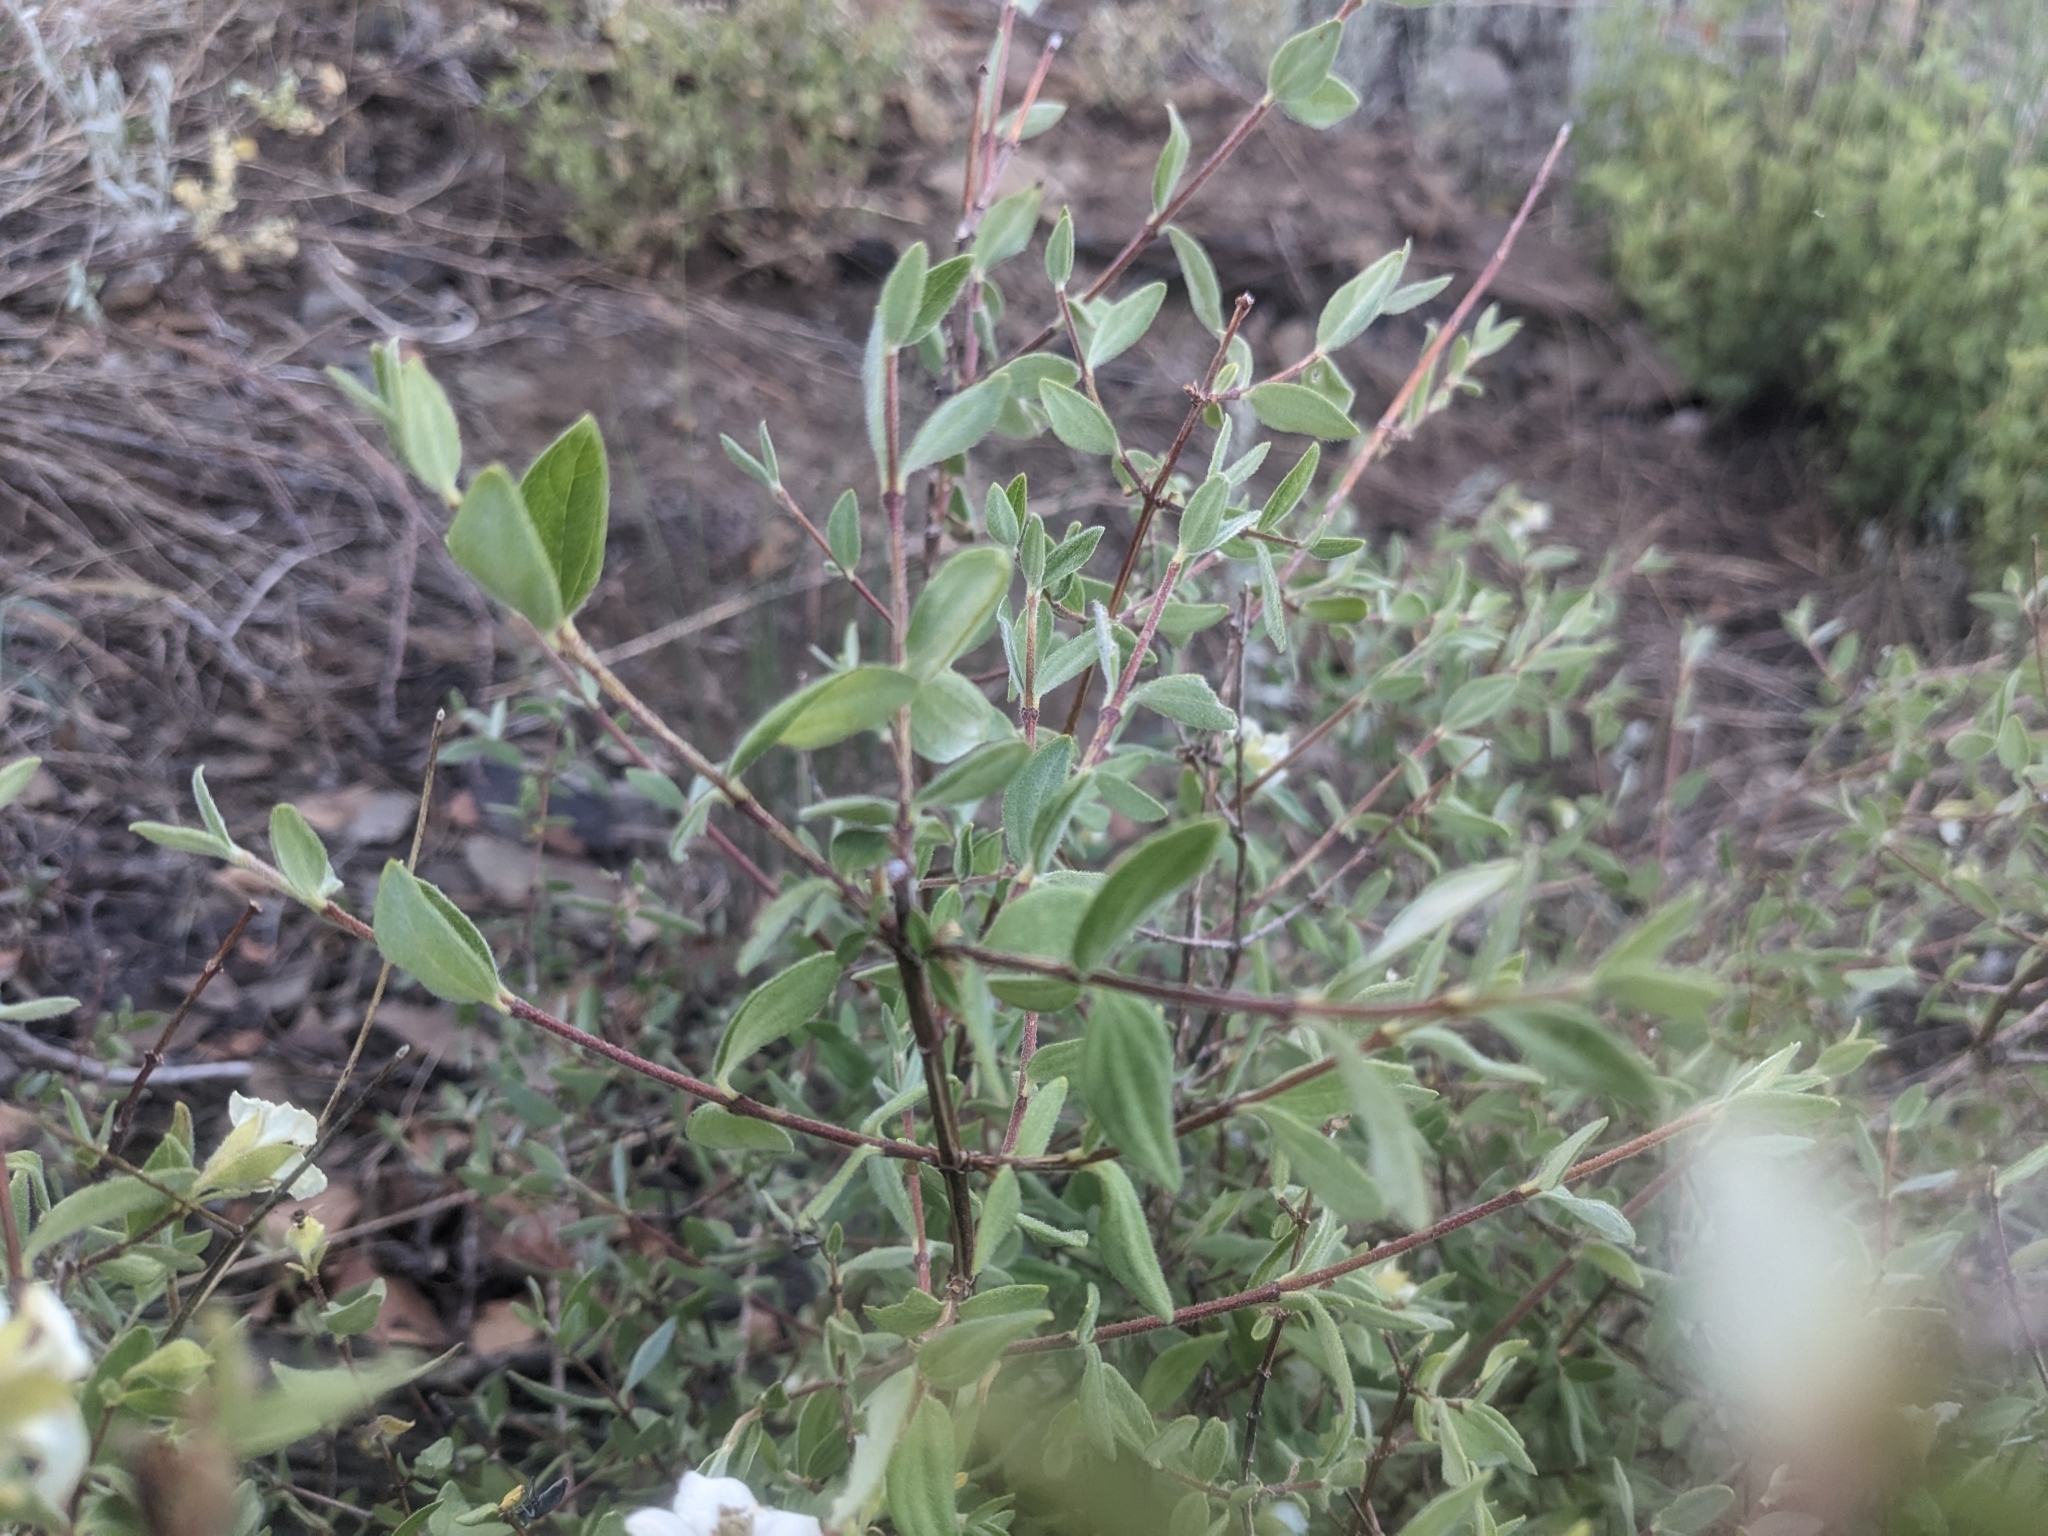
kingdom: Plantae
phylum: Tracheophyta
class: Magnoliopsida
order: Cornales
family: Hydrangeaceae
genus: Philadelphus
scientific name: Philadelphus microphyllus
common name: Desert mock orange
